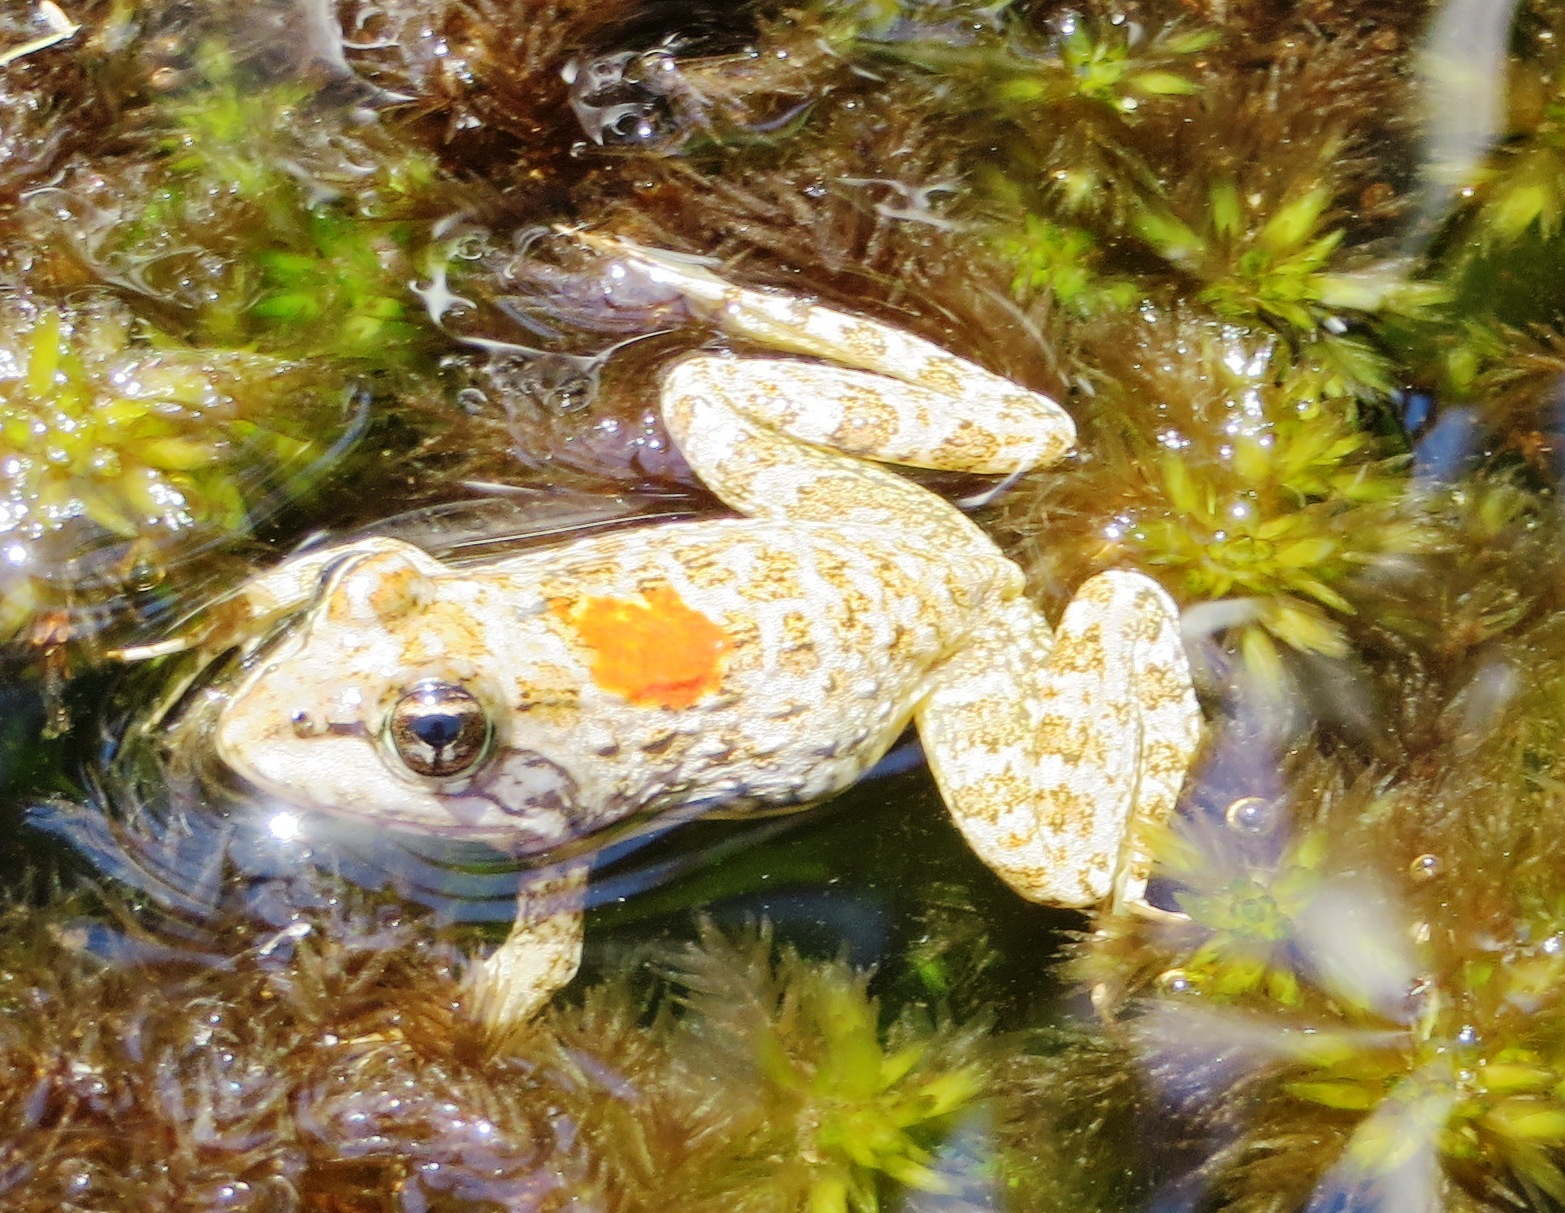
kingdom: Animalia
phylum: Chordata
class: Amphibia
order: Anura
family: Pyxicephalidae
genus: Amietia
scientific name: Amietia fuscigula
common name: Cape rana
